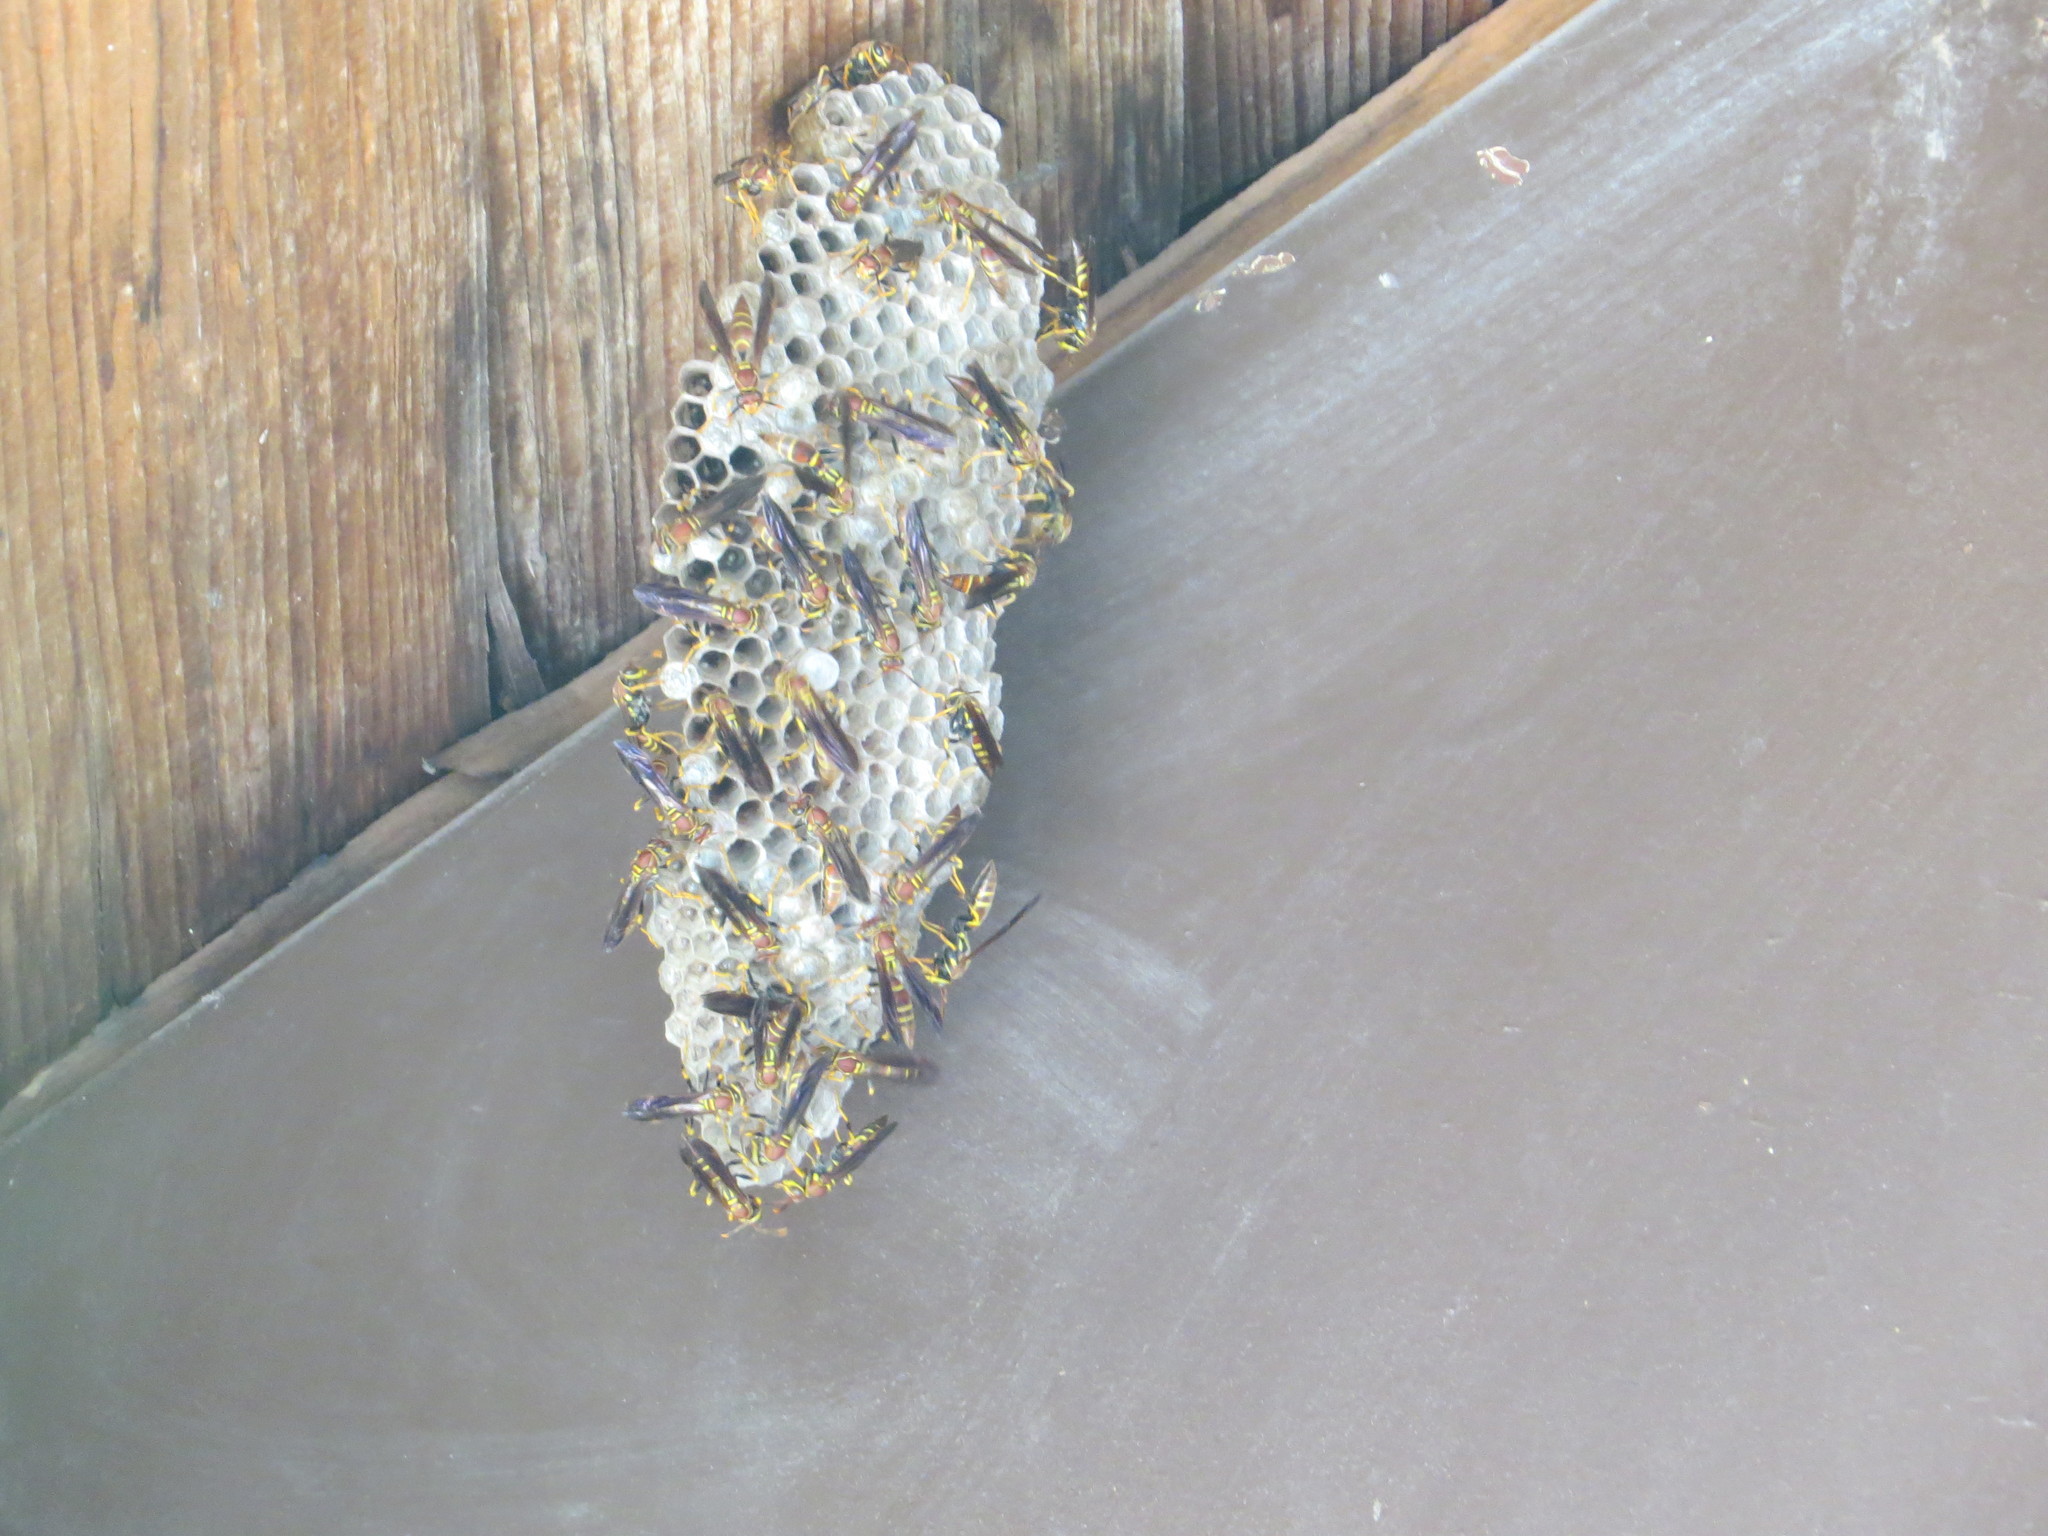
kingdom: Animalia
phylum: Arthropoda
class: Insecta
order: Hymenoptera
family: Eumenidae
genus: Polistes
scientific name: Polistes instabilis
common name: Unstable paper wasp
